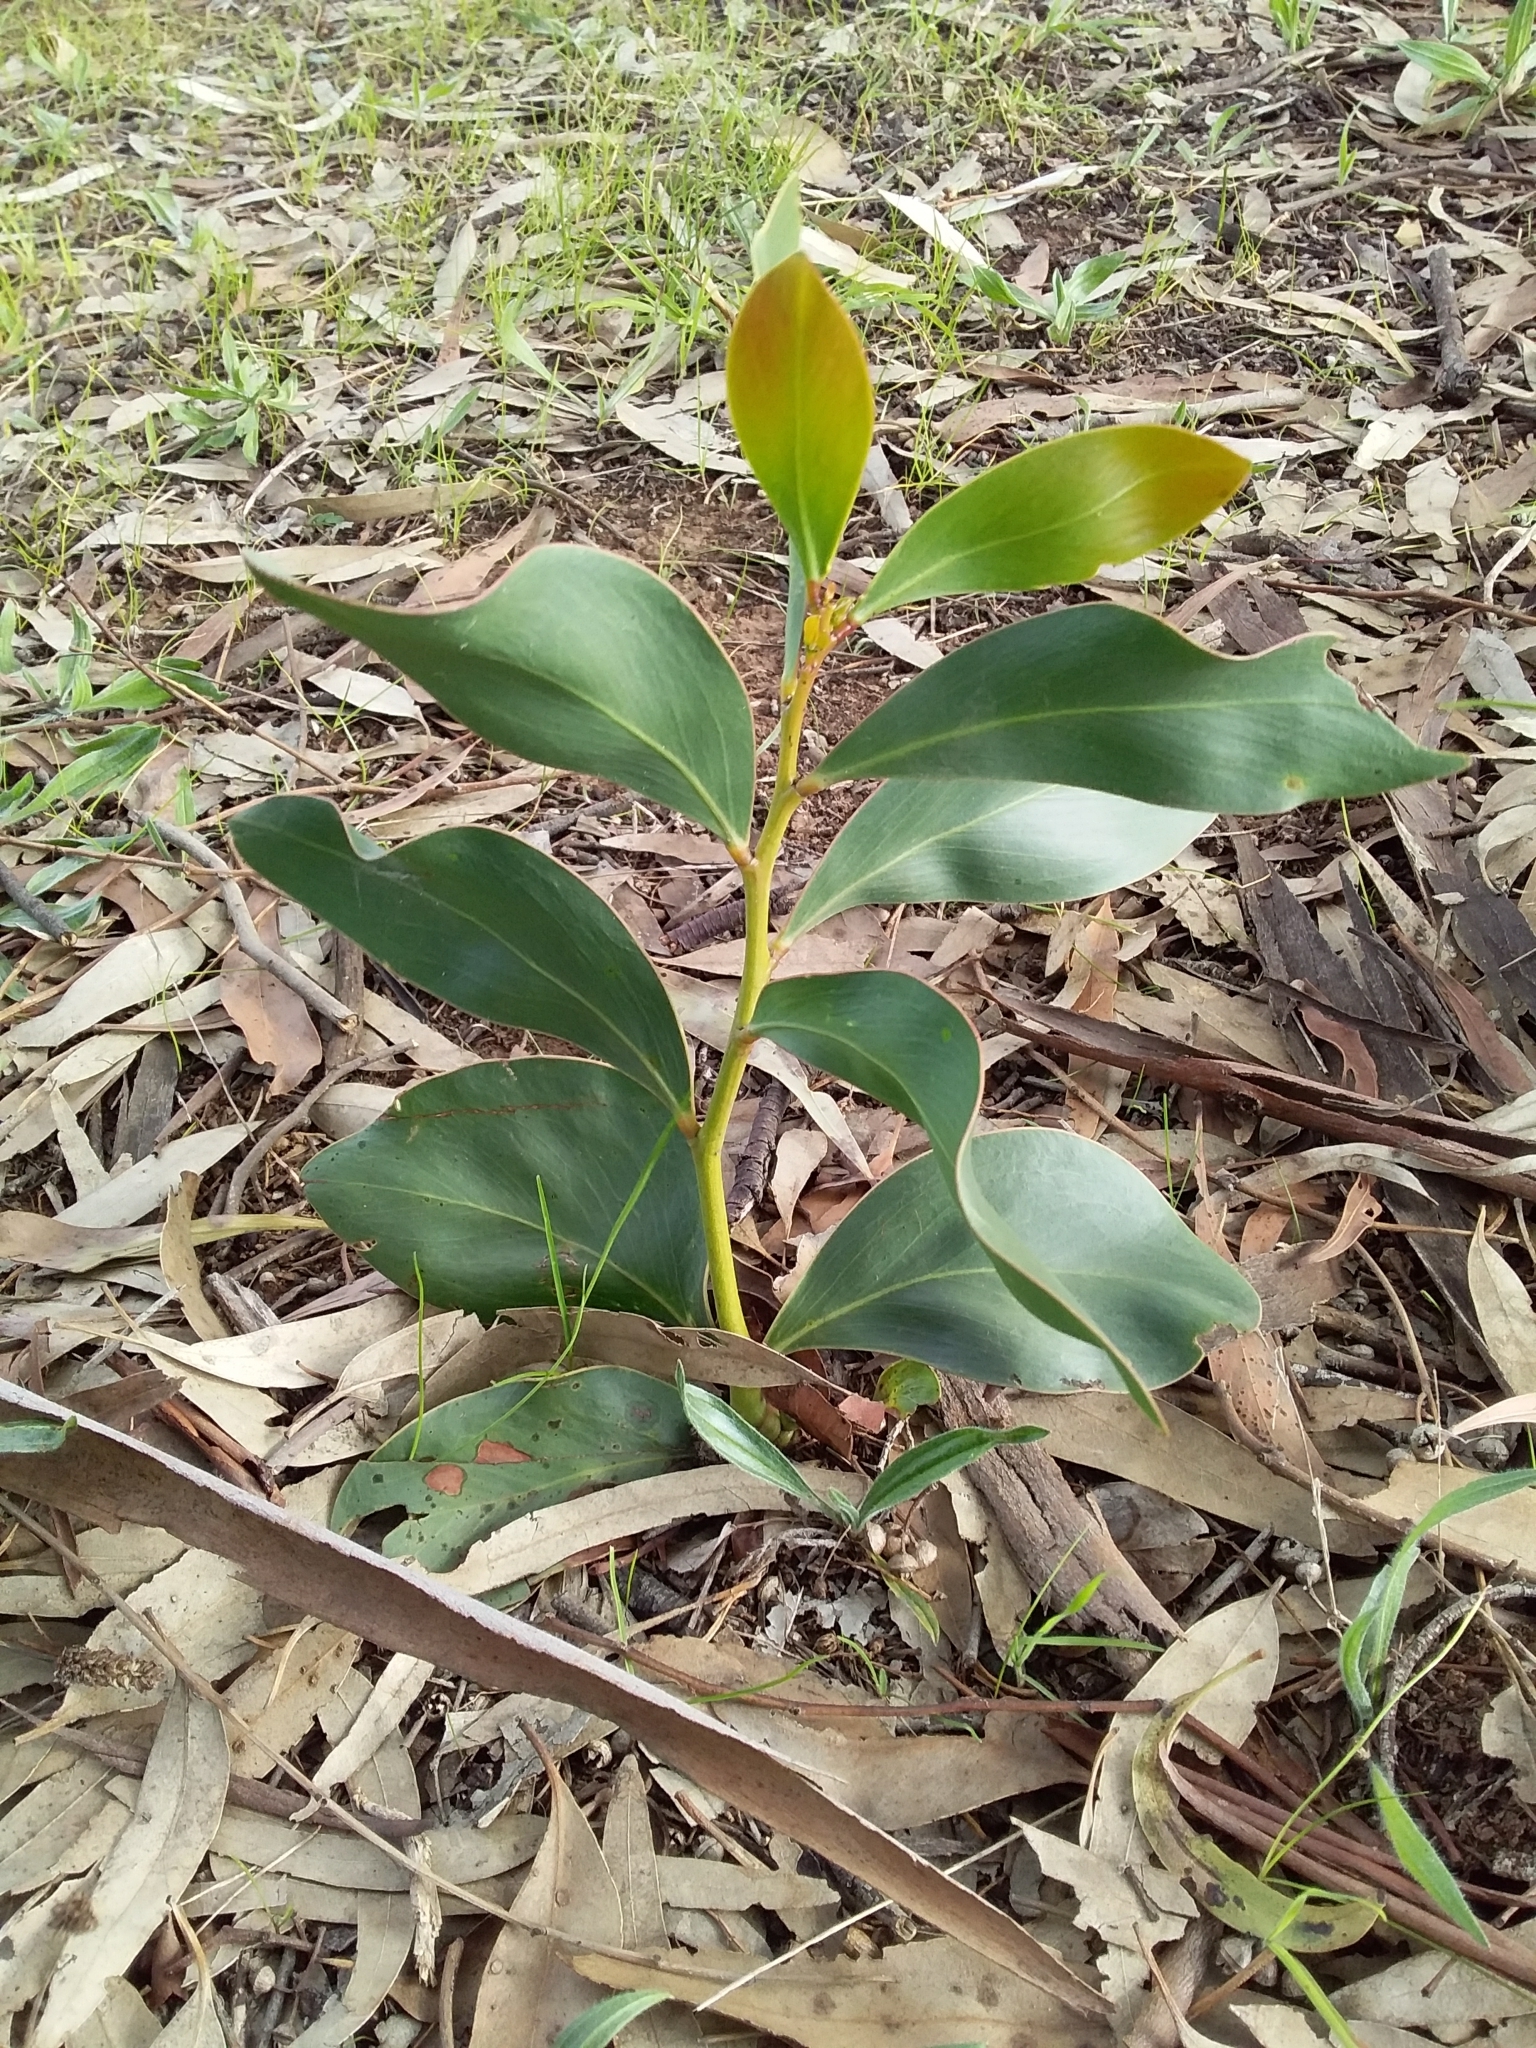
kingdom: Plantae
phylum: Tracheophyta
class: Magnoliopsida
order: Fabales
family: Fabaceae
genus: Acacia
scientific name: Acacia pycnantha
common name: Golden wattle
